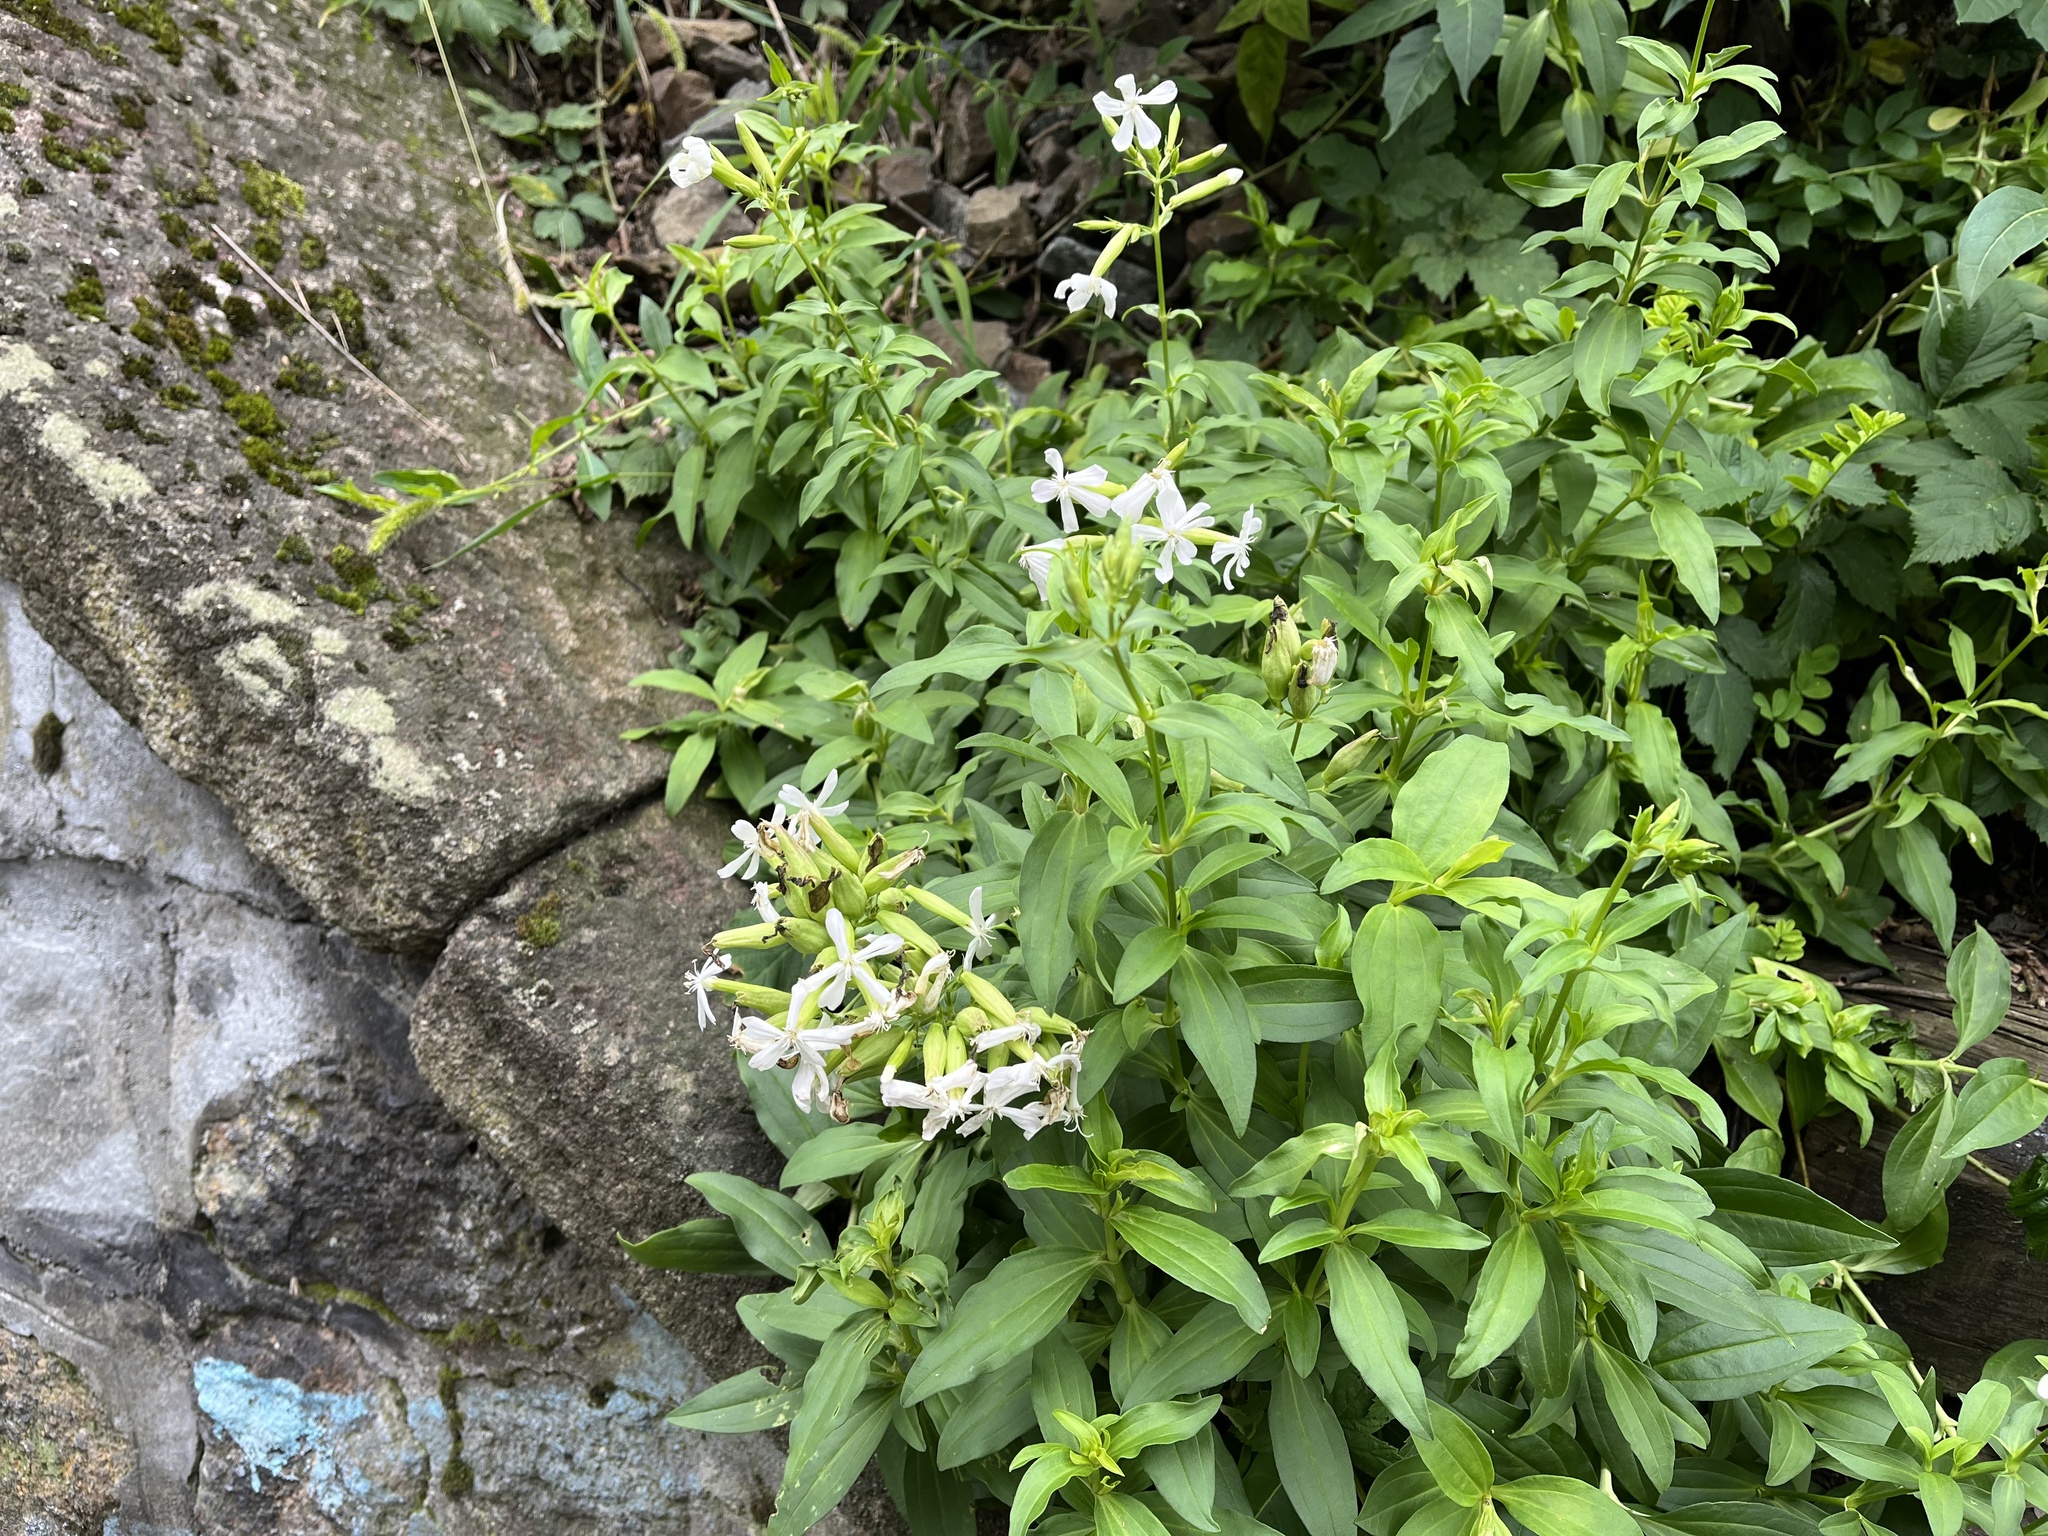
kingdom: Plantae
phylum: Tracheophyta
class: Magnoliopsida
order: Caryophyllales
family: Caryophyllaceae
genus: Saponaria
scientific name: Saponaria officinalis
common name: Soapwort
